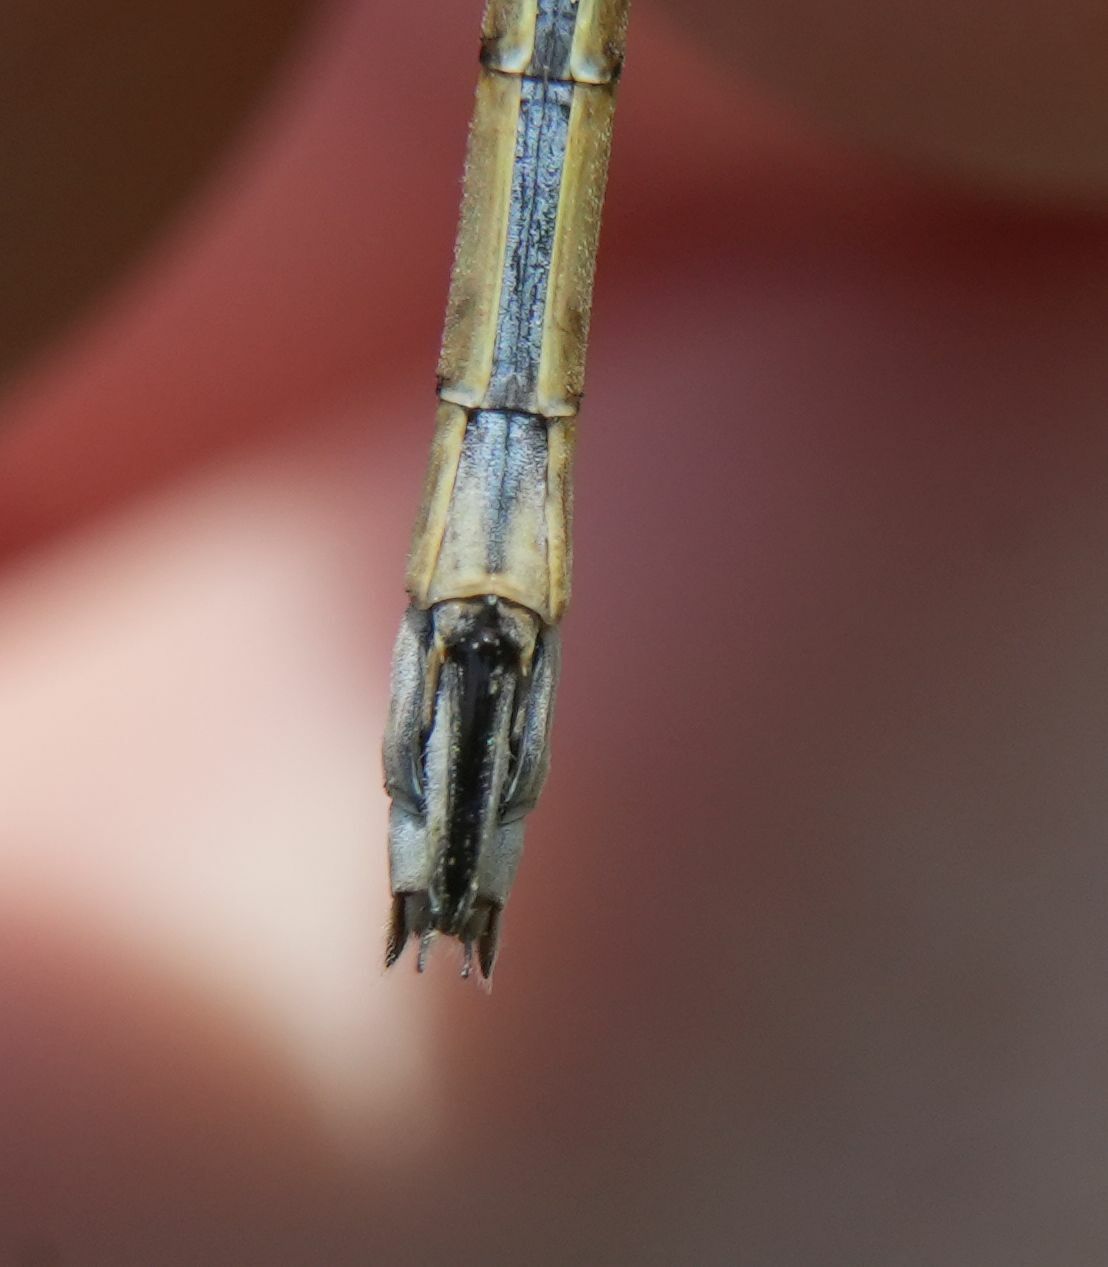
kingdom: Animalia
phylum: Arthropoda
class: Insecta
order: Odonata
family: Lestidae
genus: Lestes
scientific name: Lestes dryas
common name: Scarce emerald damselfly
